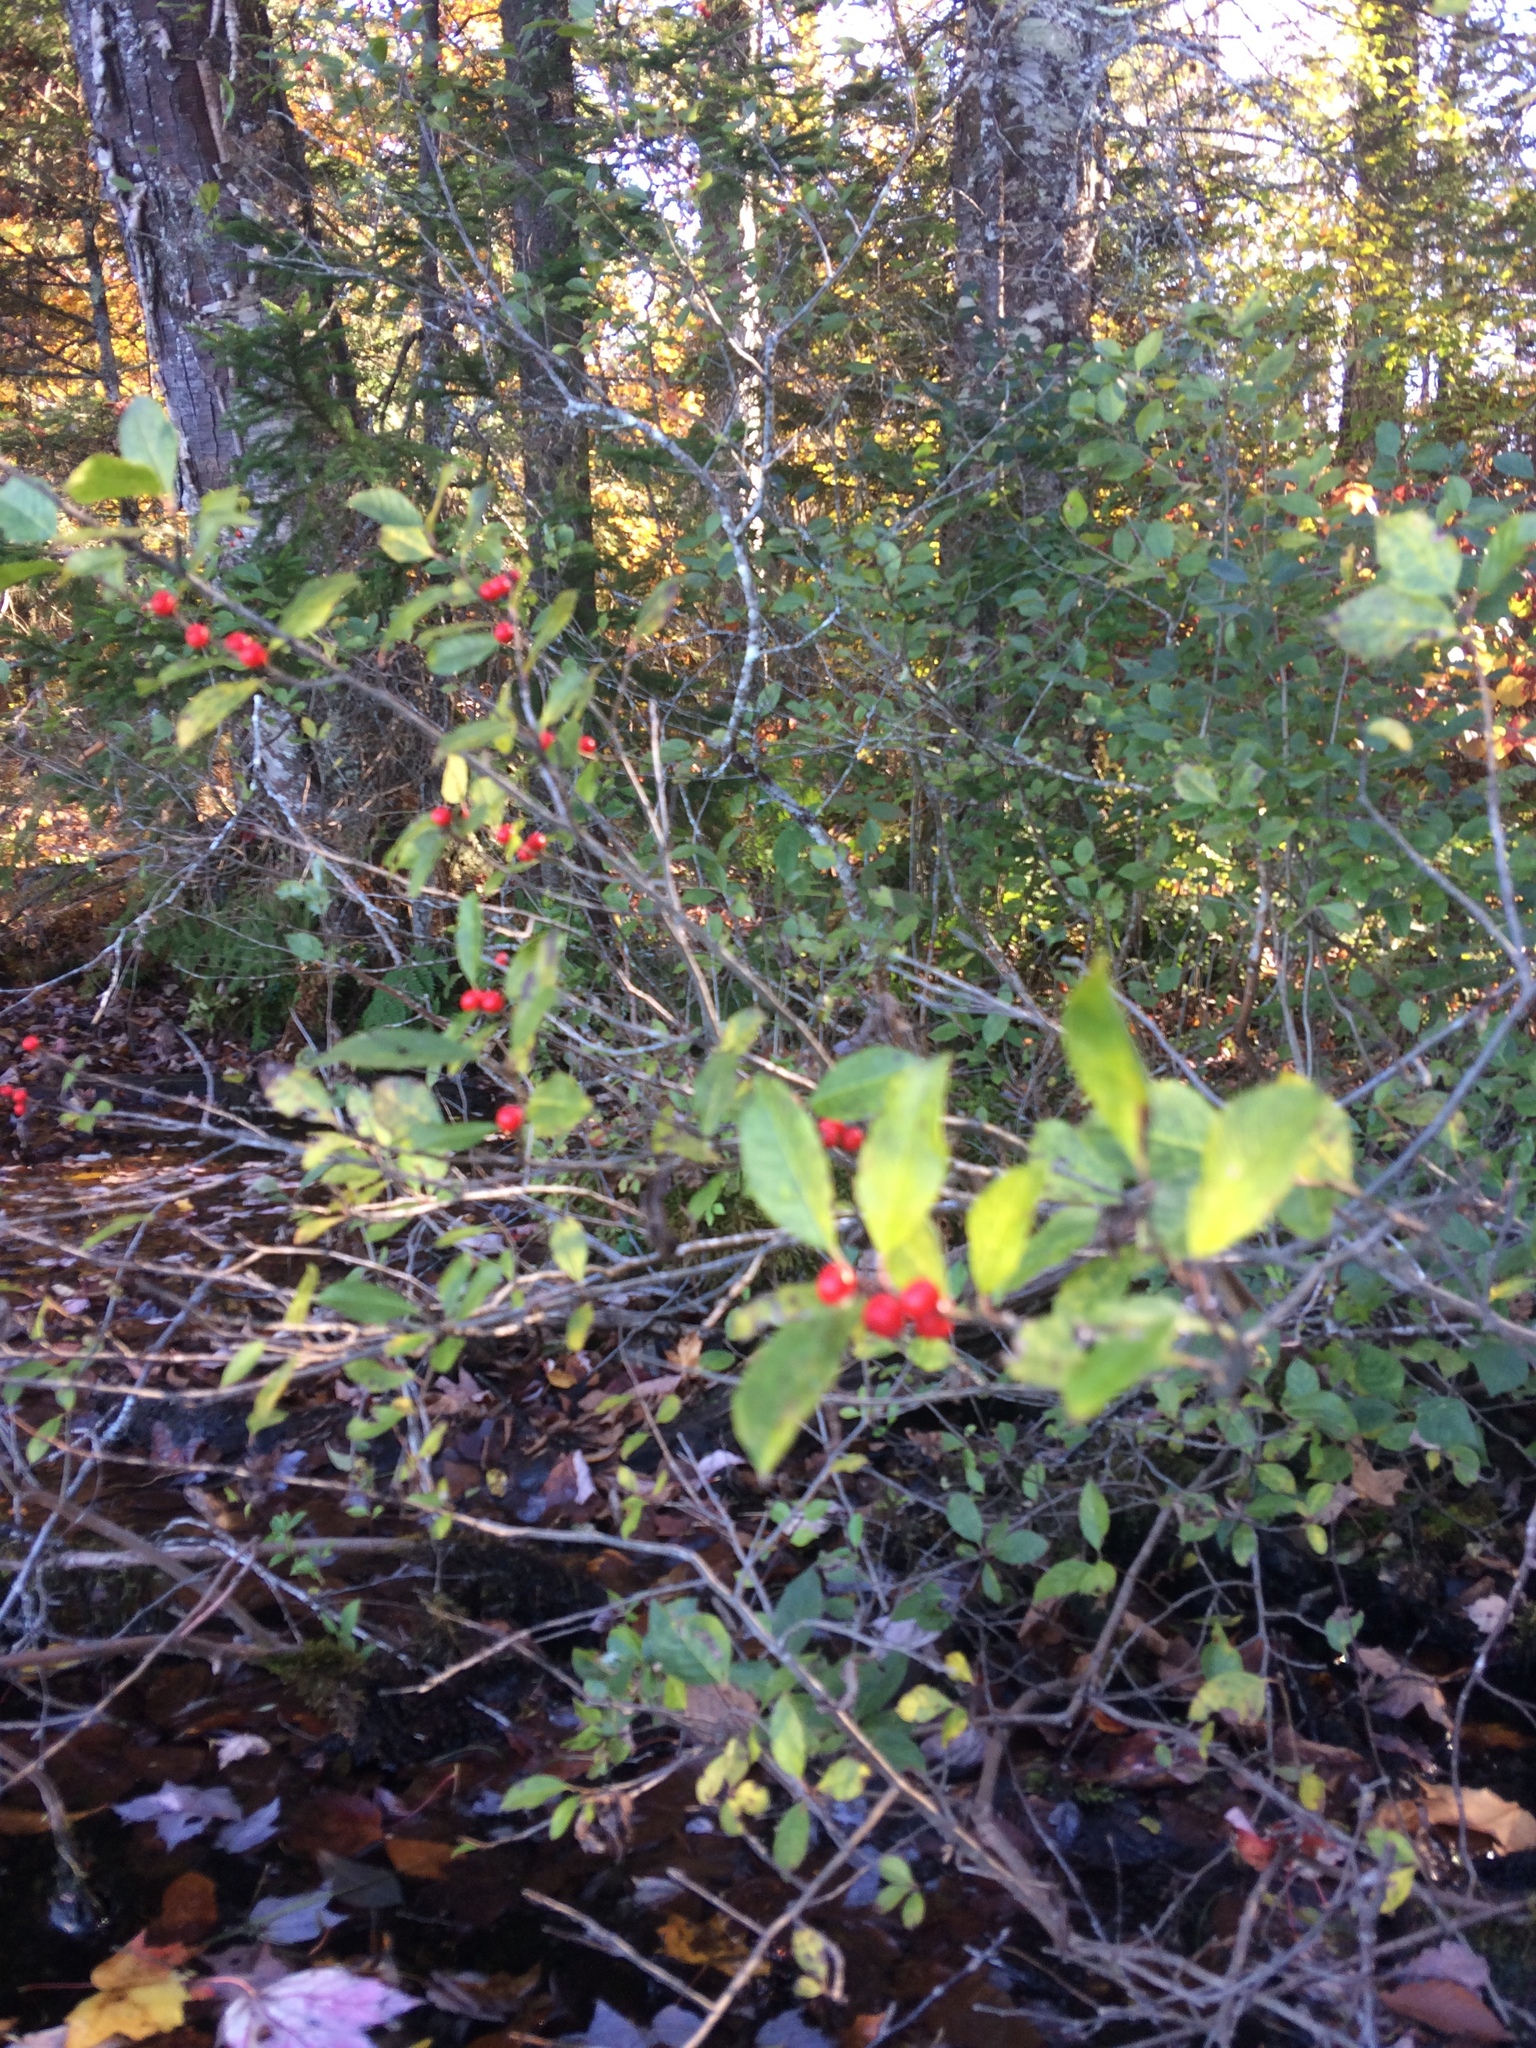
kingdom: Plantae
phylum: Tracheophyta
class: Magnoliopsida
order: Aquifoliales
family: Aquifoliaceae
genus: Ilex
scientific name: Ilex verticillata
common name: Virginia winterberry
